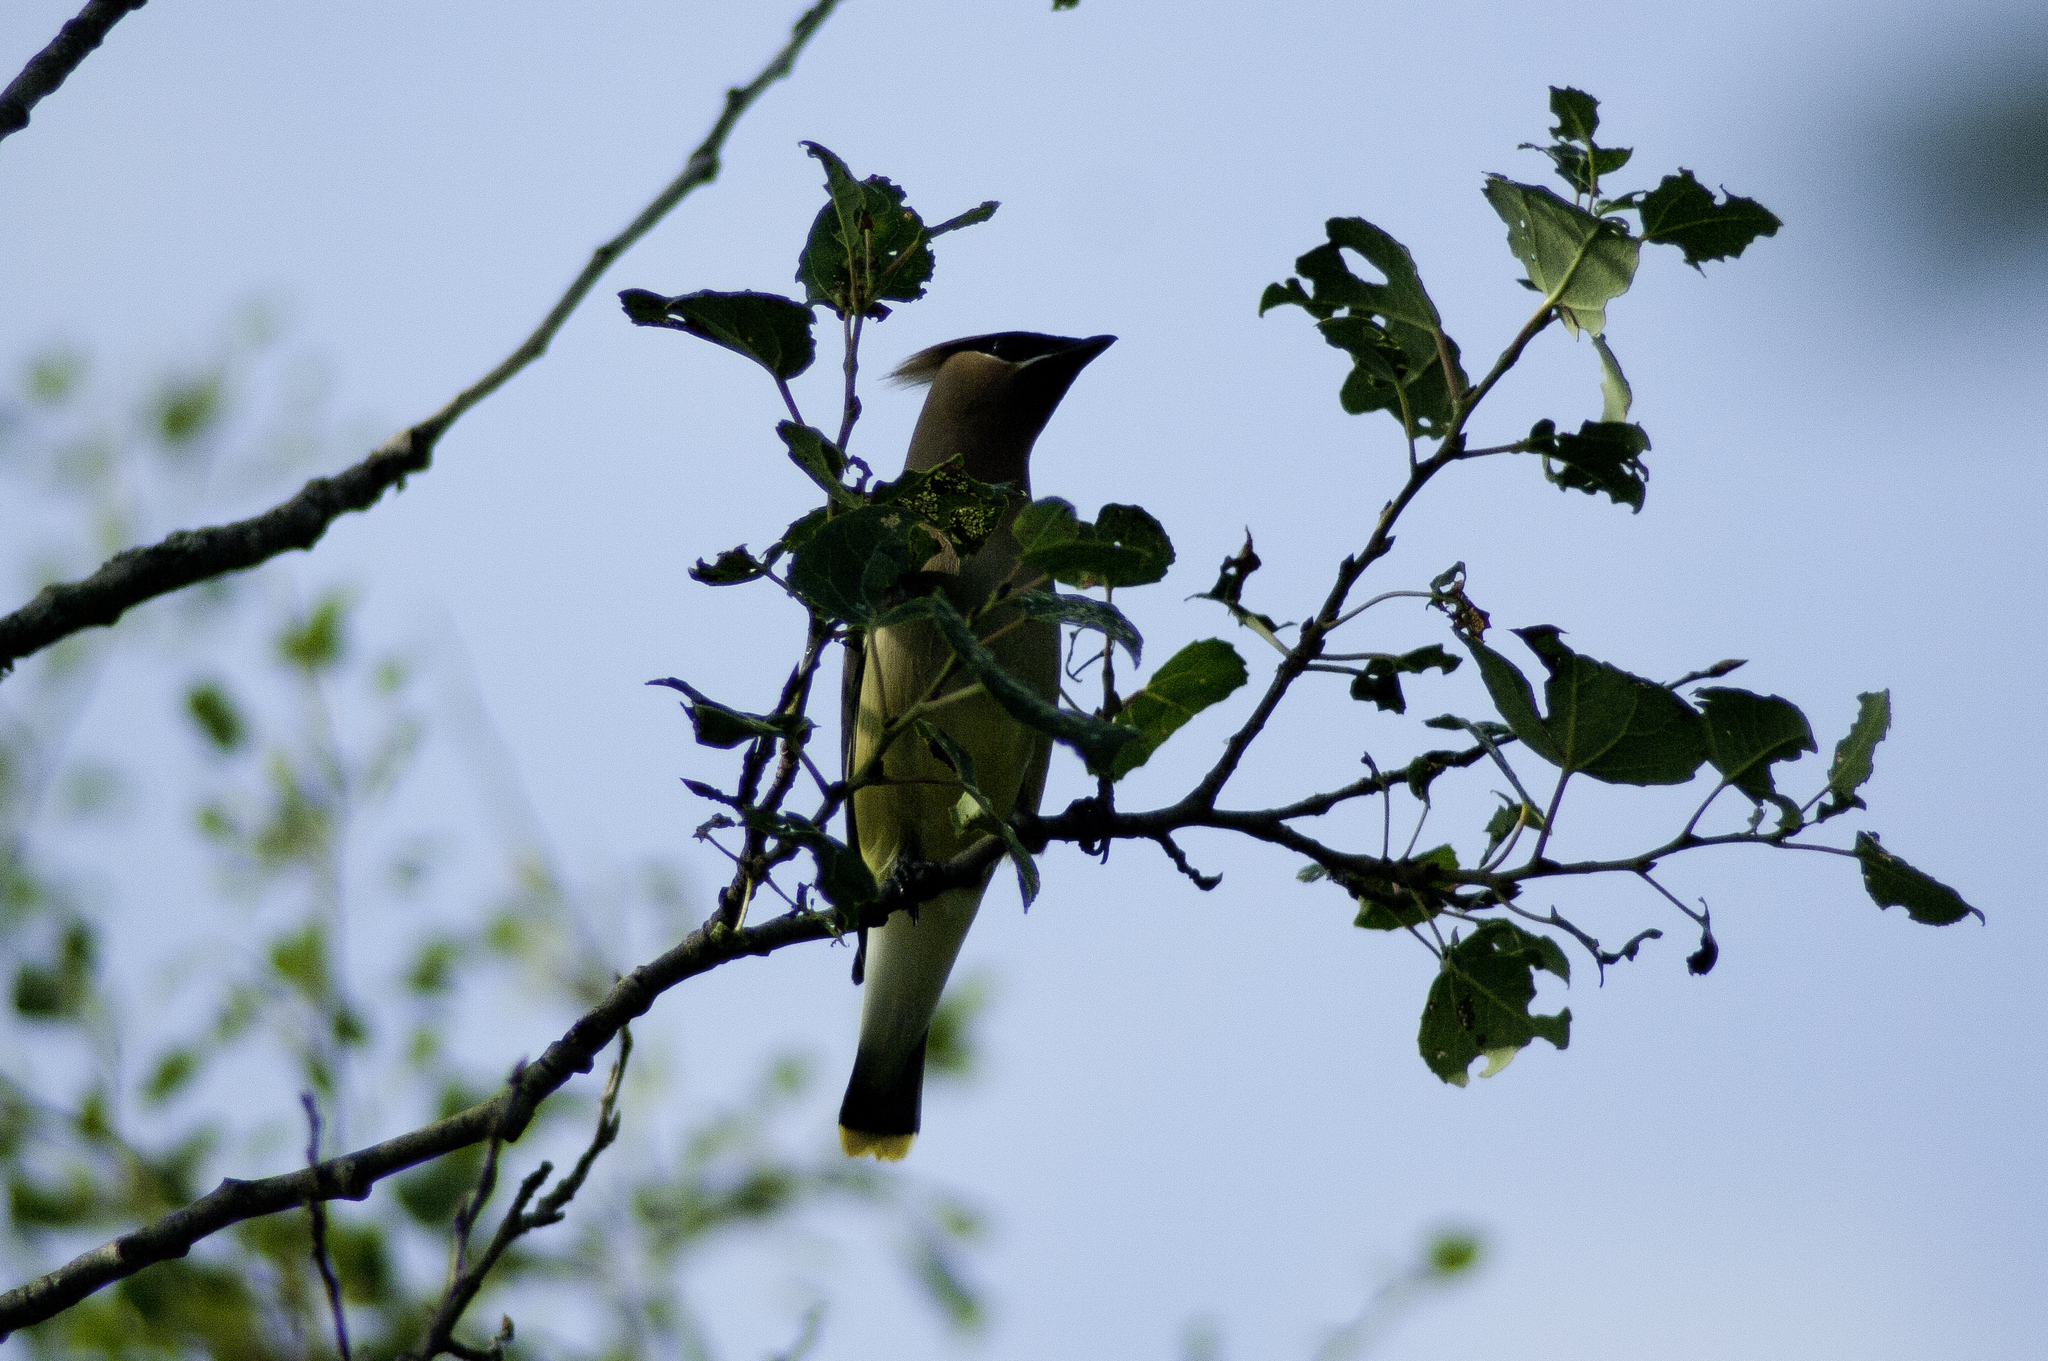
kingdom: Animalia
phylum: Chordata
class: Aves
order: Passeriformes
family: Bombycillidae
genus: Bombycilla
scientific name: Bombycilla cedrorum
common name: Cedar waxwing
